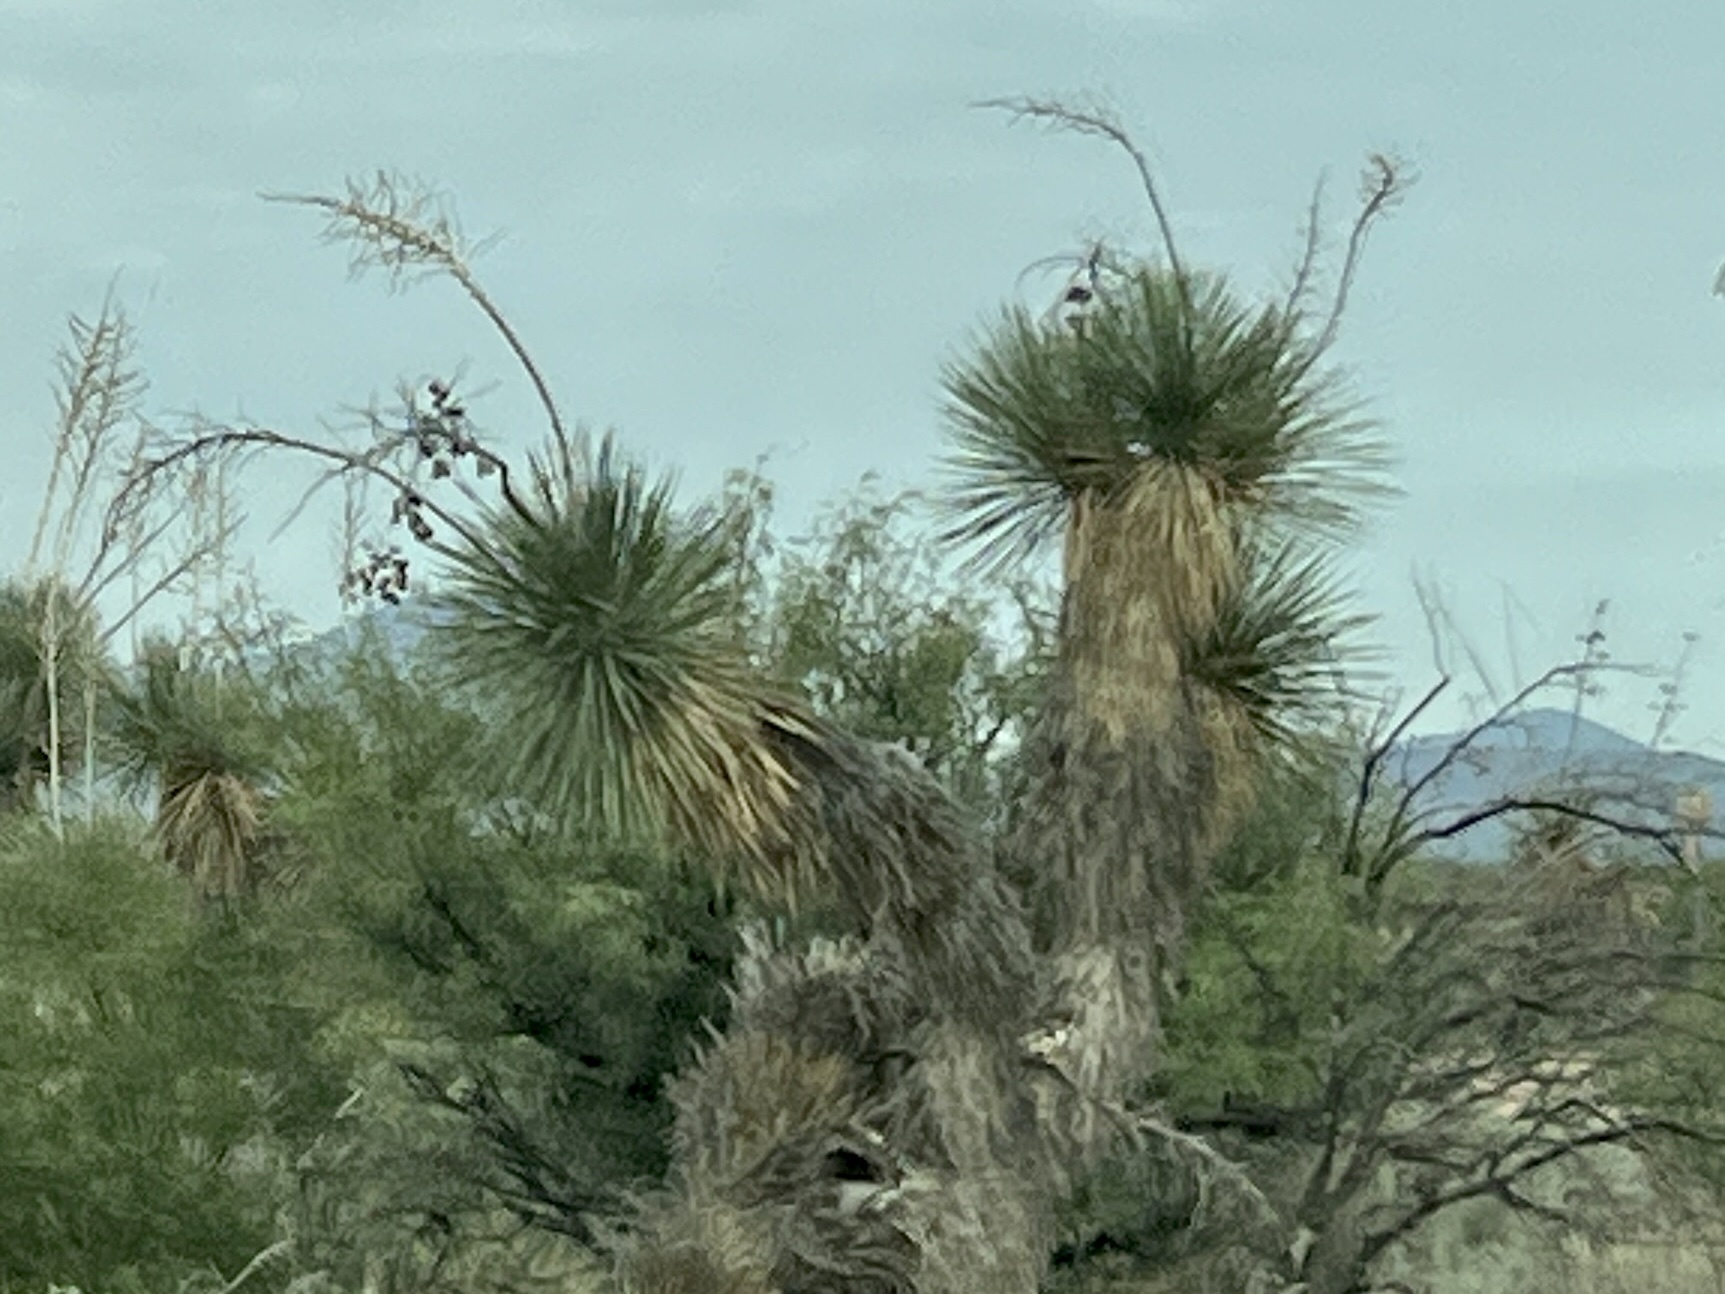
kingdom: Plantae
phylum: Tracheophyta
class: Liliopsida
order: Asparagales
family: Asparagaceae
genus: Yucca
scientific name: Yucca elata
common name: Palmella
